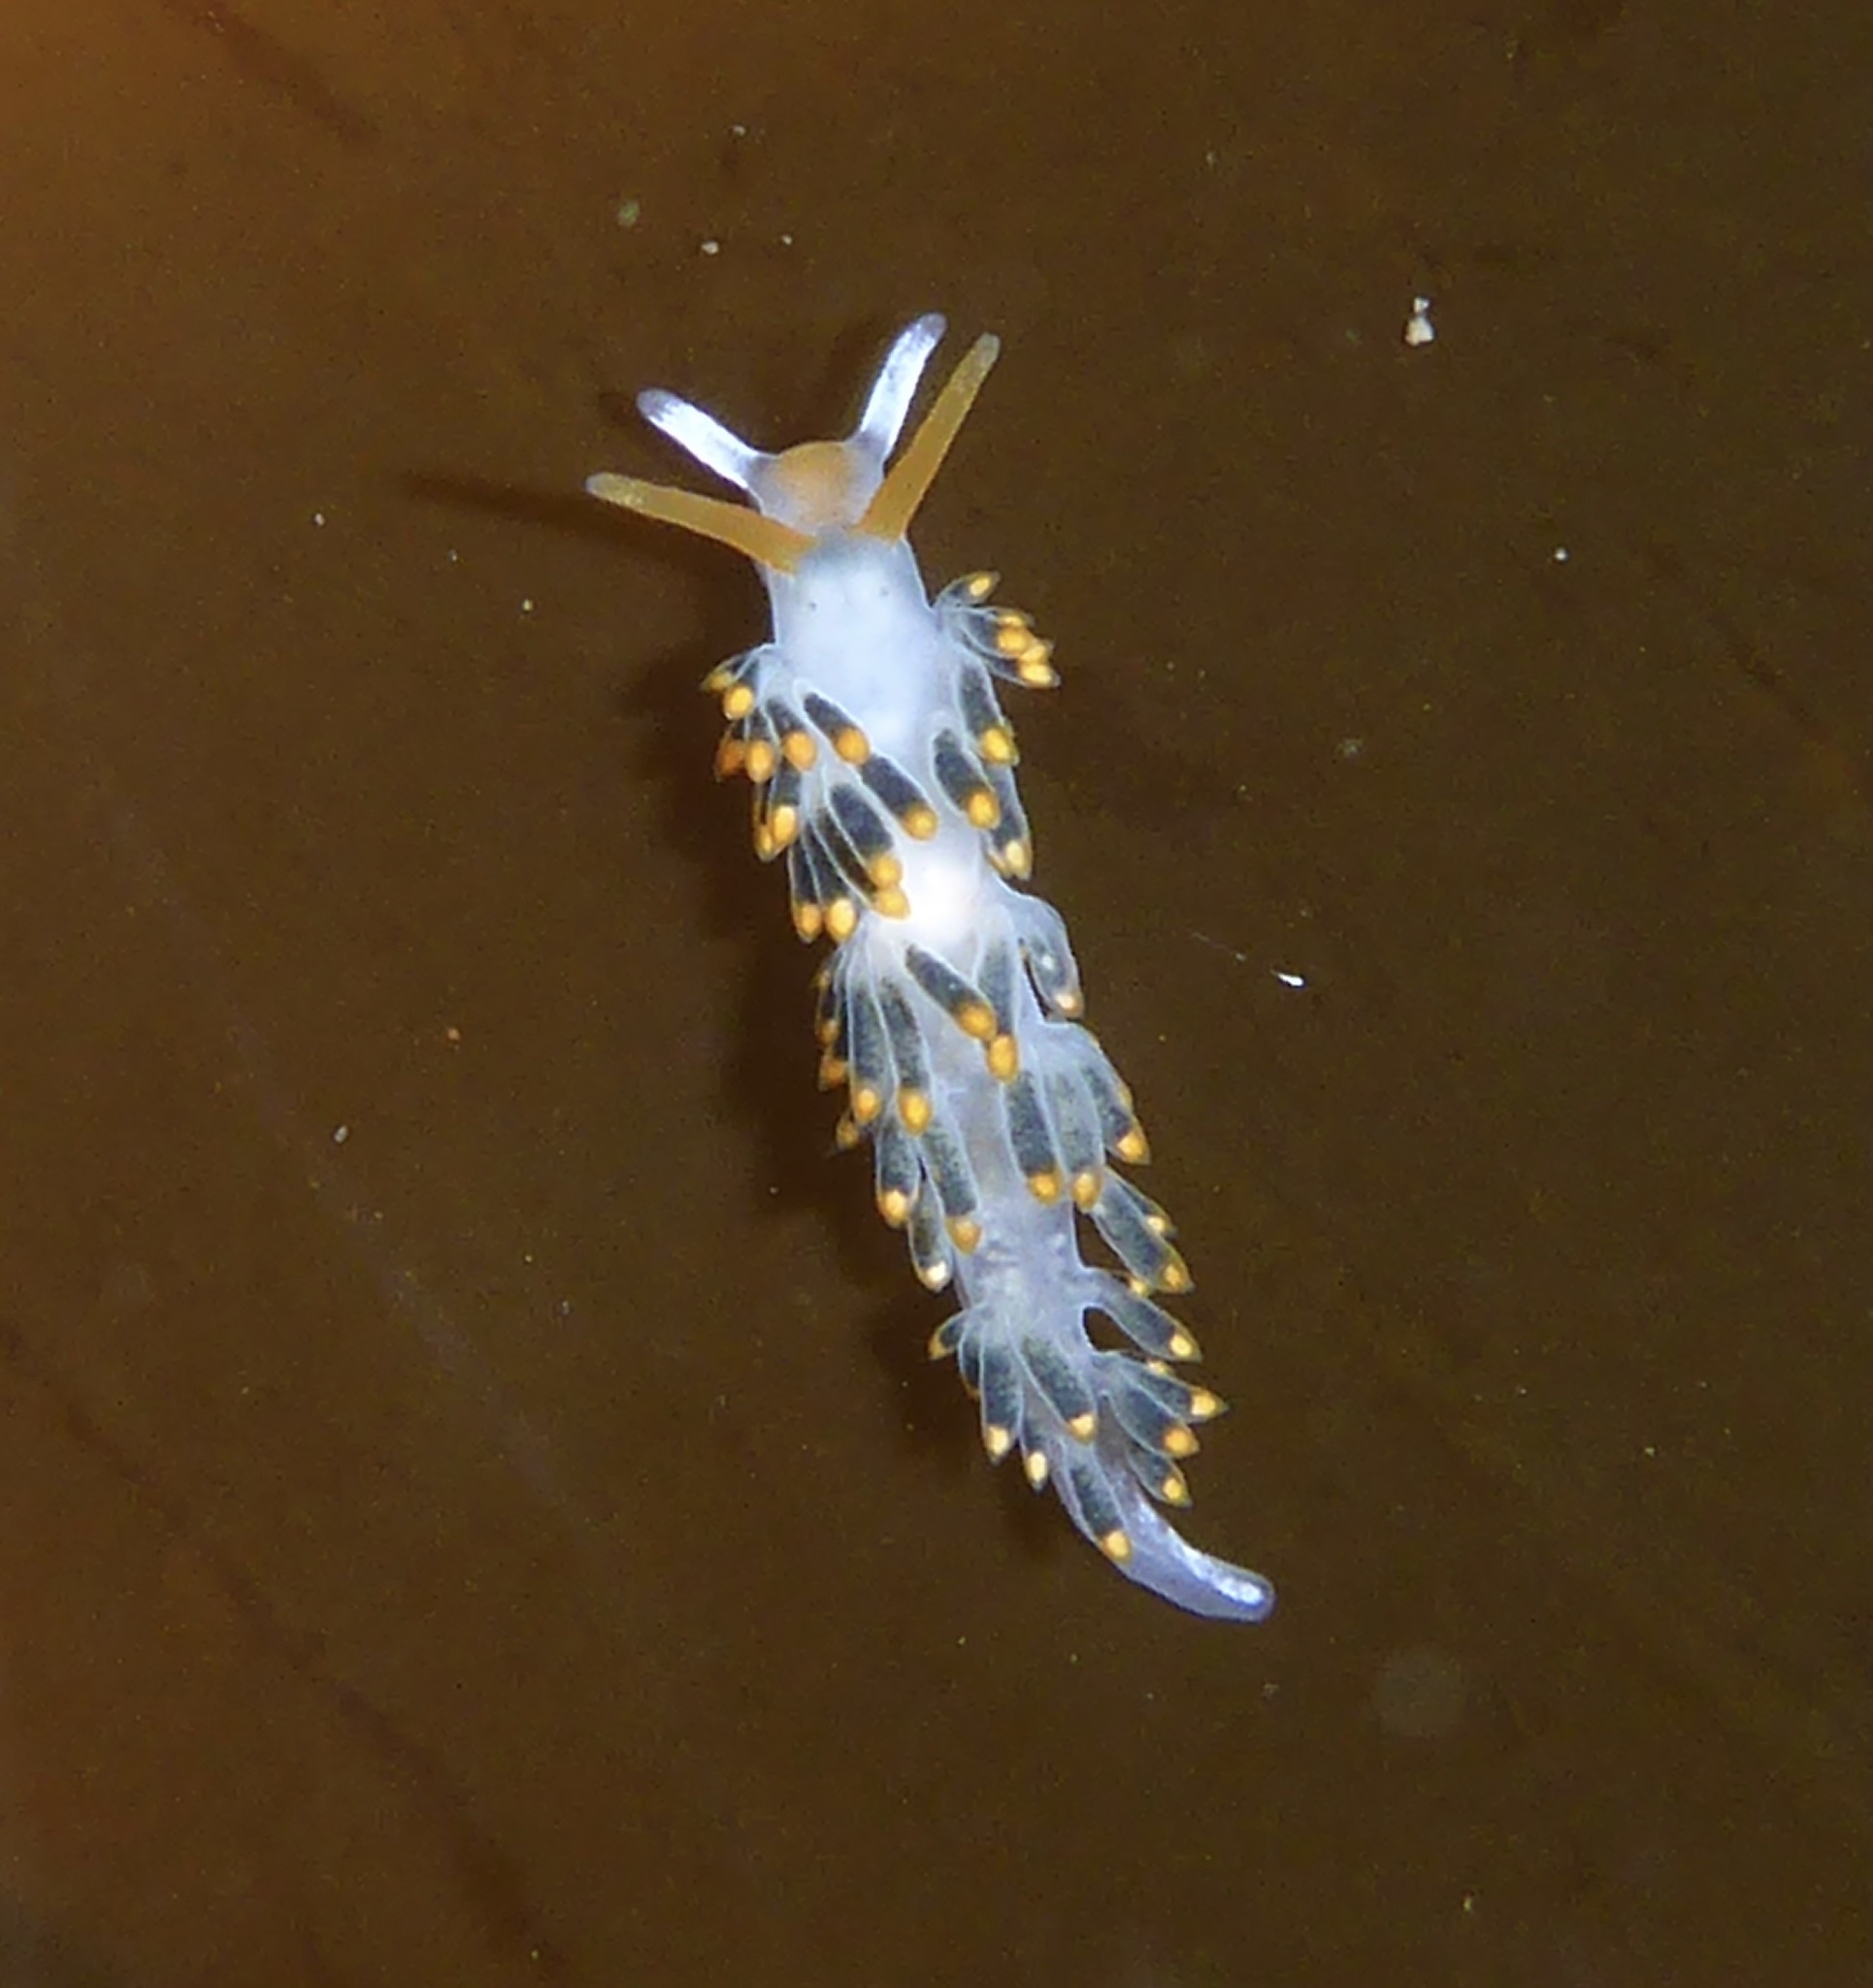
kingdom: Animalia
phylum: Mollusca
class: Gastropoda
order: Nudibranchia
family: Trinchesiidae
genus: Diaphoreolis
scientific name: Diaphoreolis lagunae
